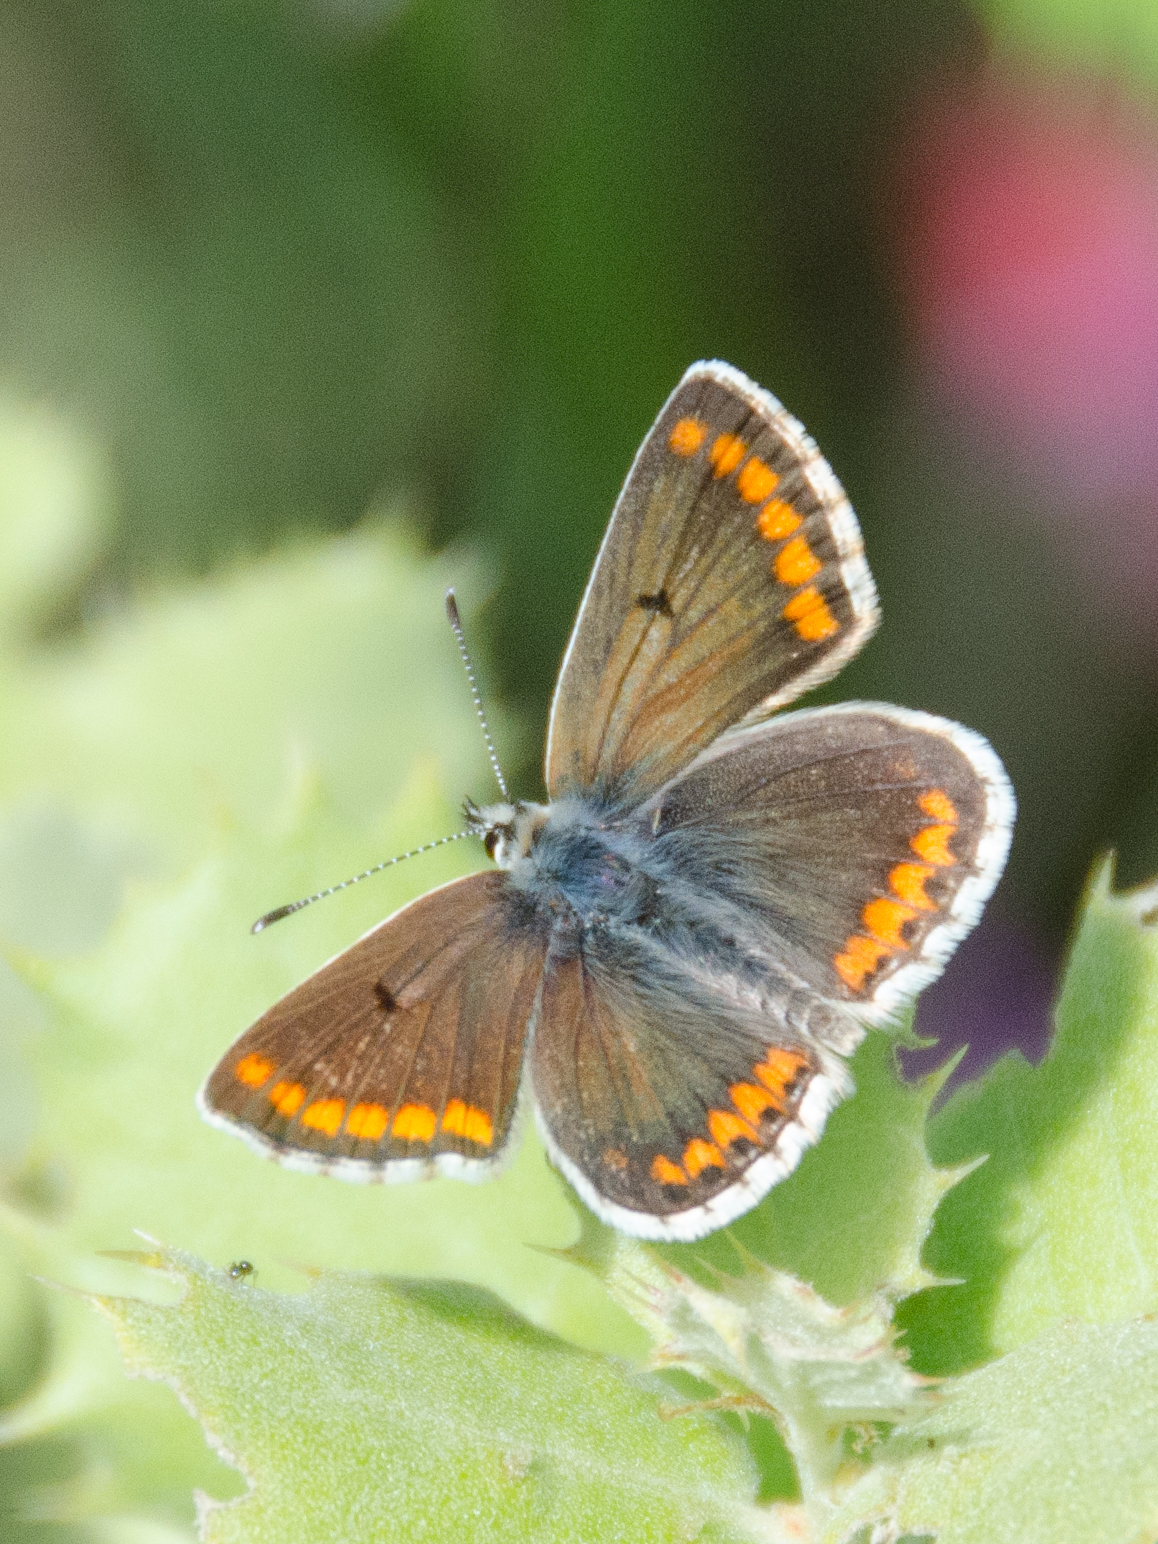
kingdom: Animalia
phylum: Arthropoda
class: Insecta
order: Lepidoptera
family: Lycaenidae
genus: Aricia
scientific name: Aricia cramera
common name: Eschscholtz´s brown  argus
